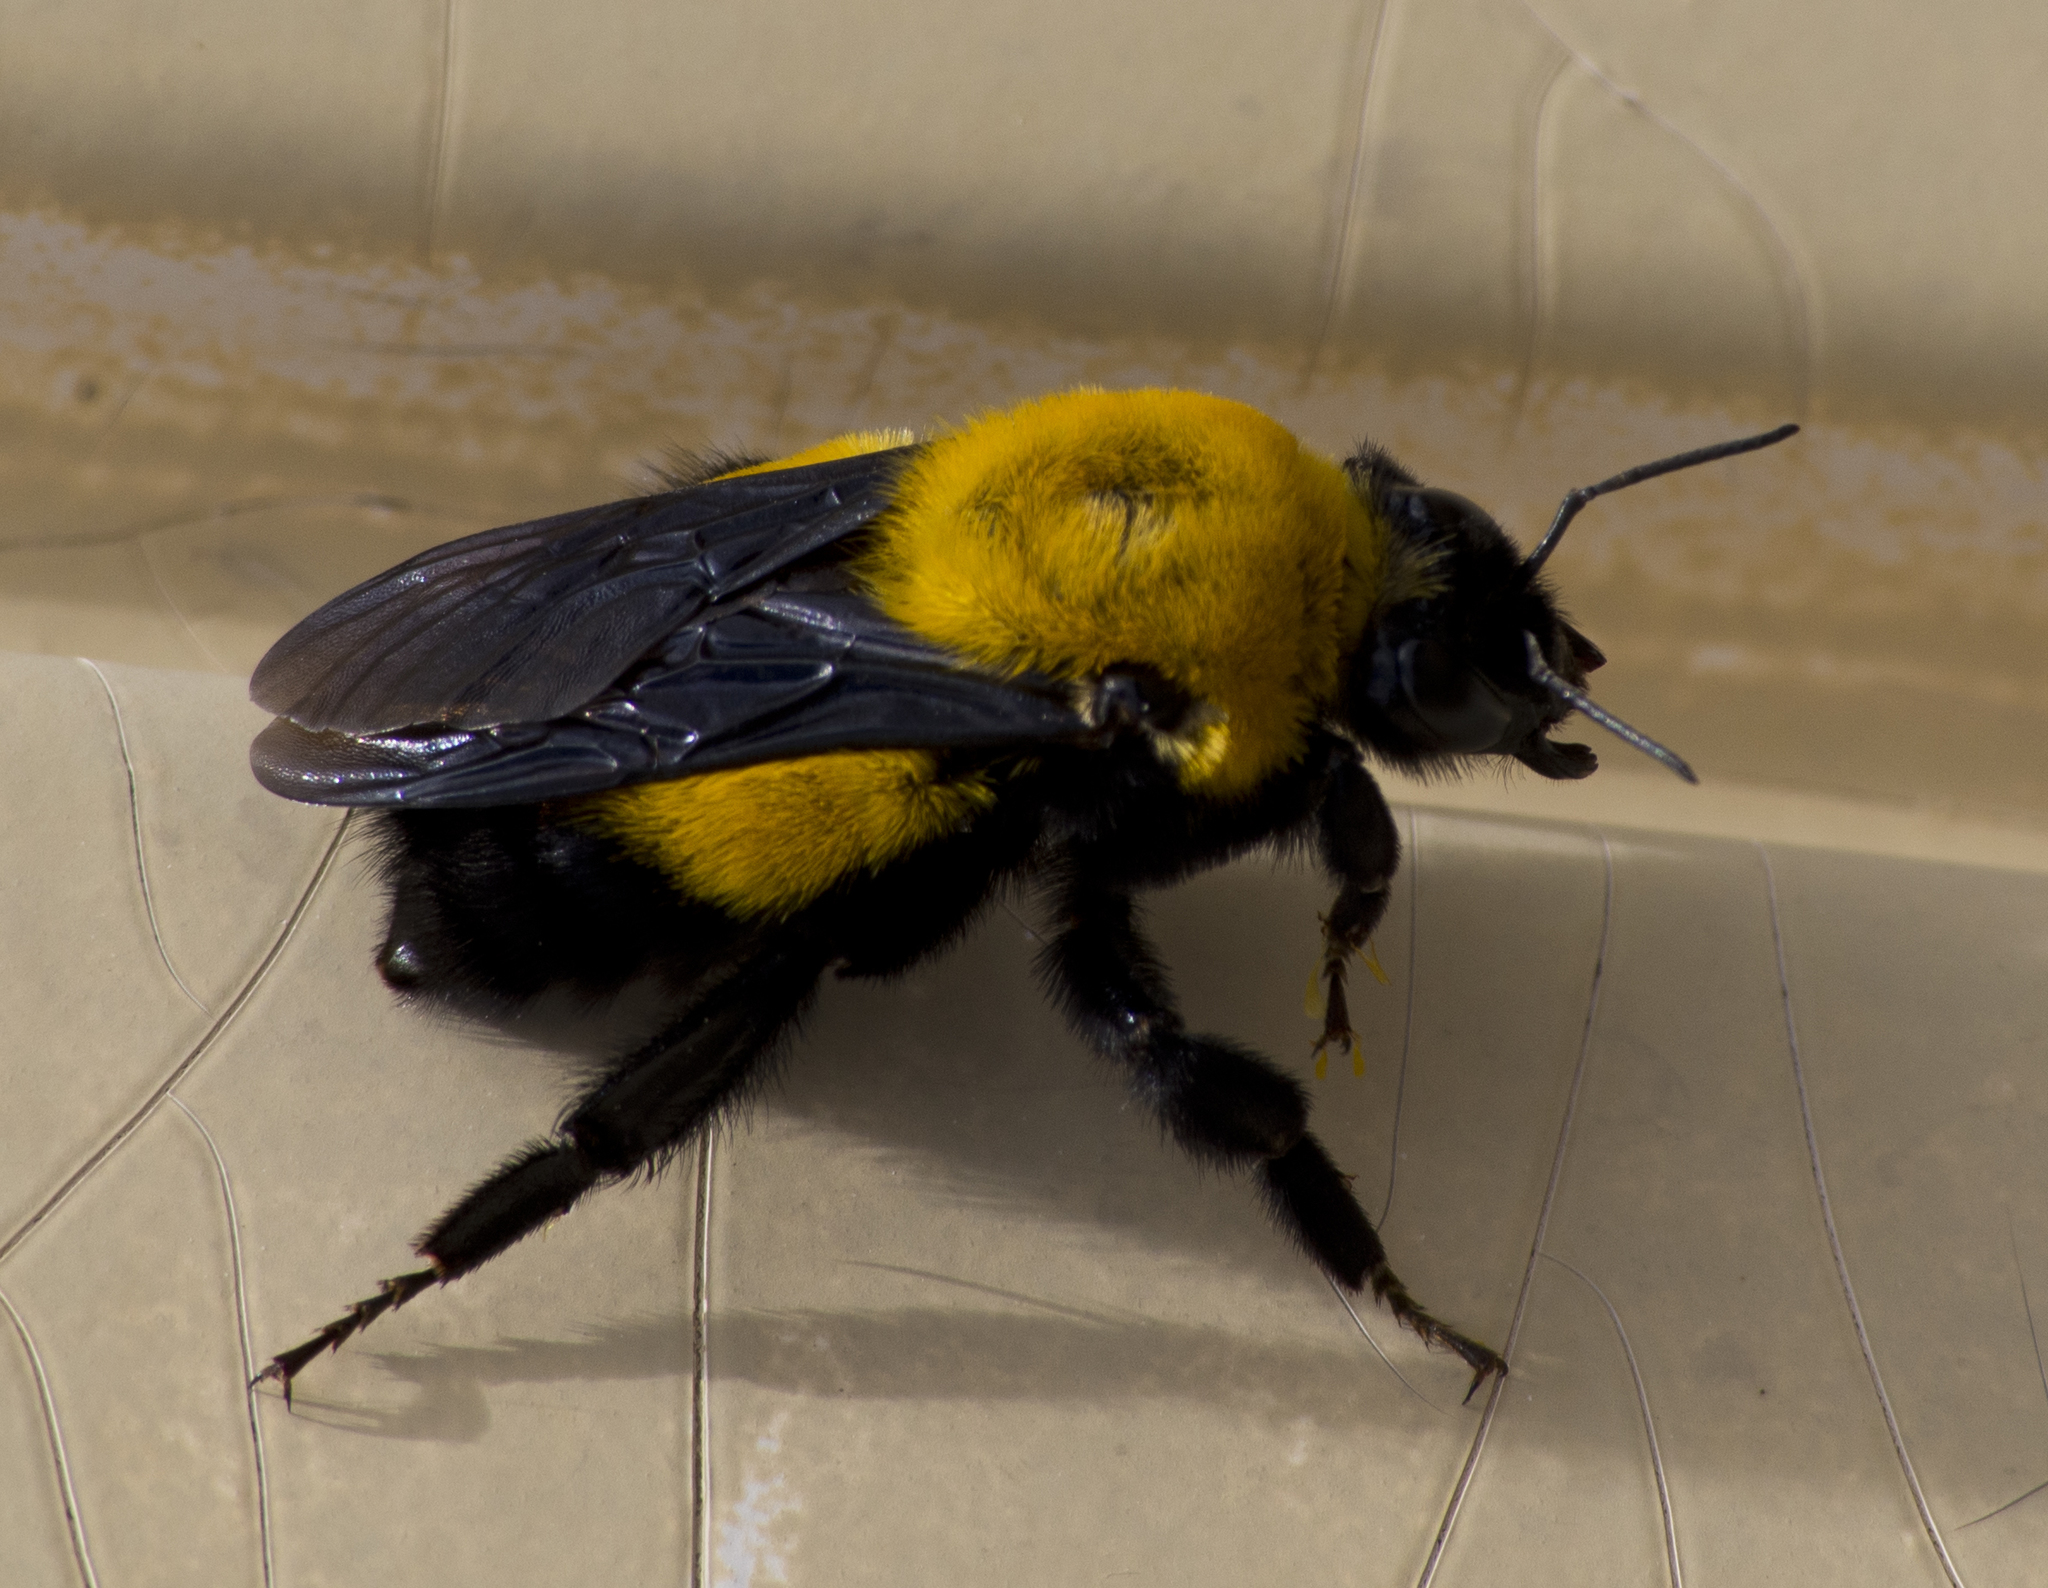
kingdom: Animalia
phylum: Arthropoda
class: Insecta
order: Hymenoptera
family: Apidae
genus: Bombus
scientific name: Bombus morrisoni
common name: Morrison bumble bee
